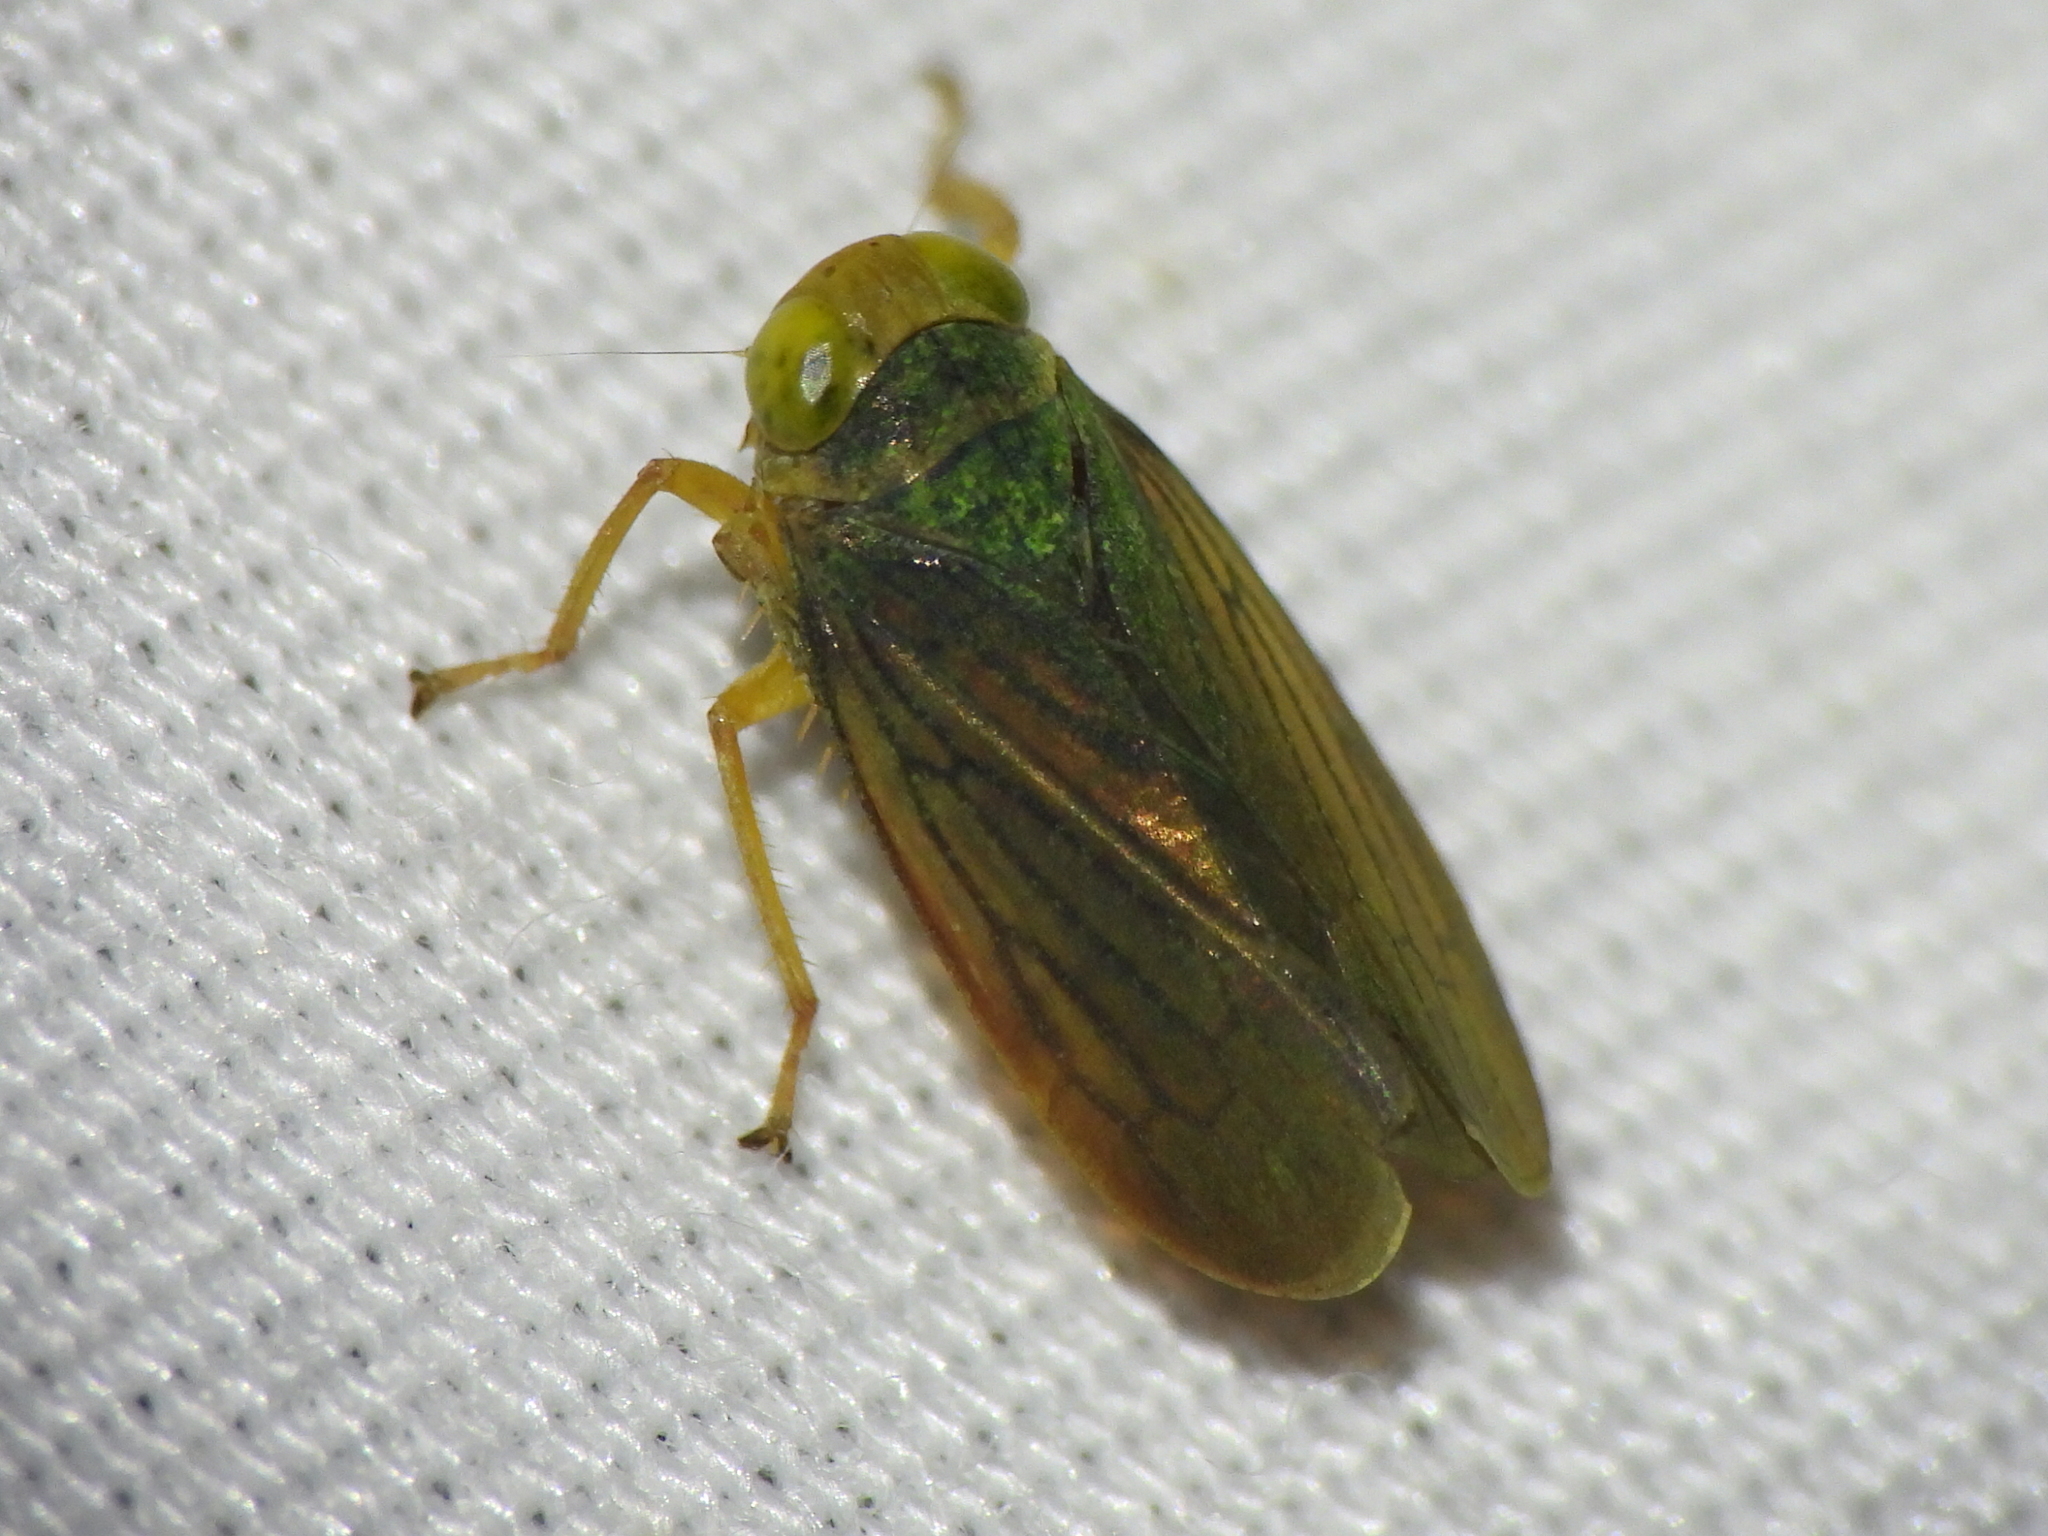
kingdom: Animalia
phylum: Arthropoda
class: Insecta
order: Hemiptera
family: Cicadellidae
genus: Jikradia
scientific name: Jikradia olitoria
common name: Coppery leafhopper
